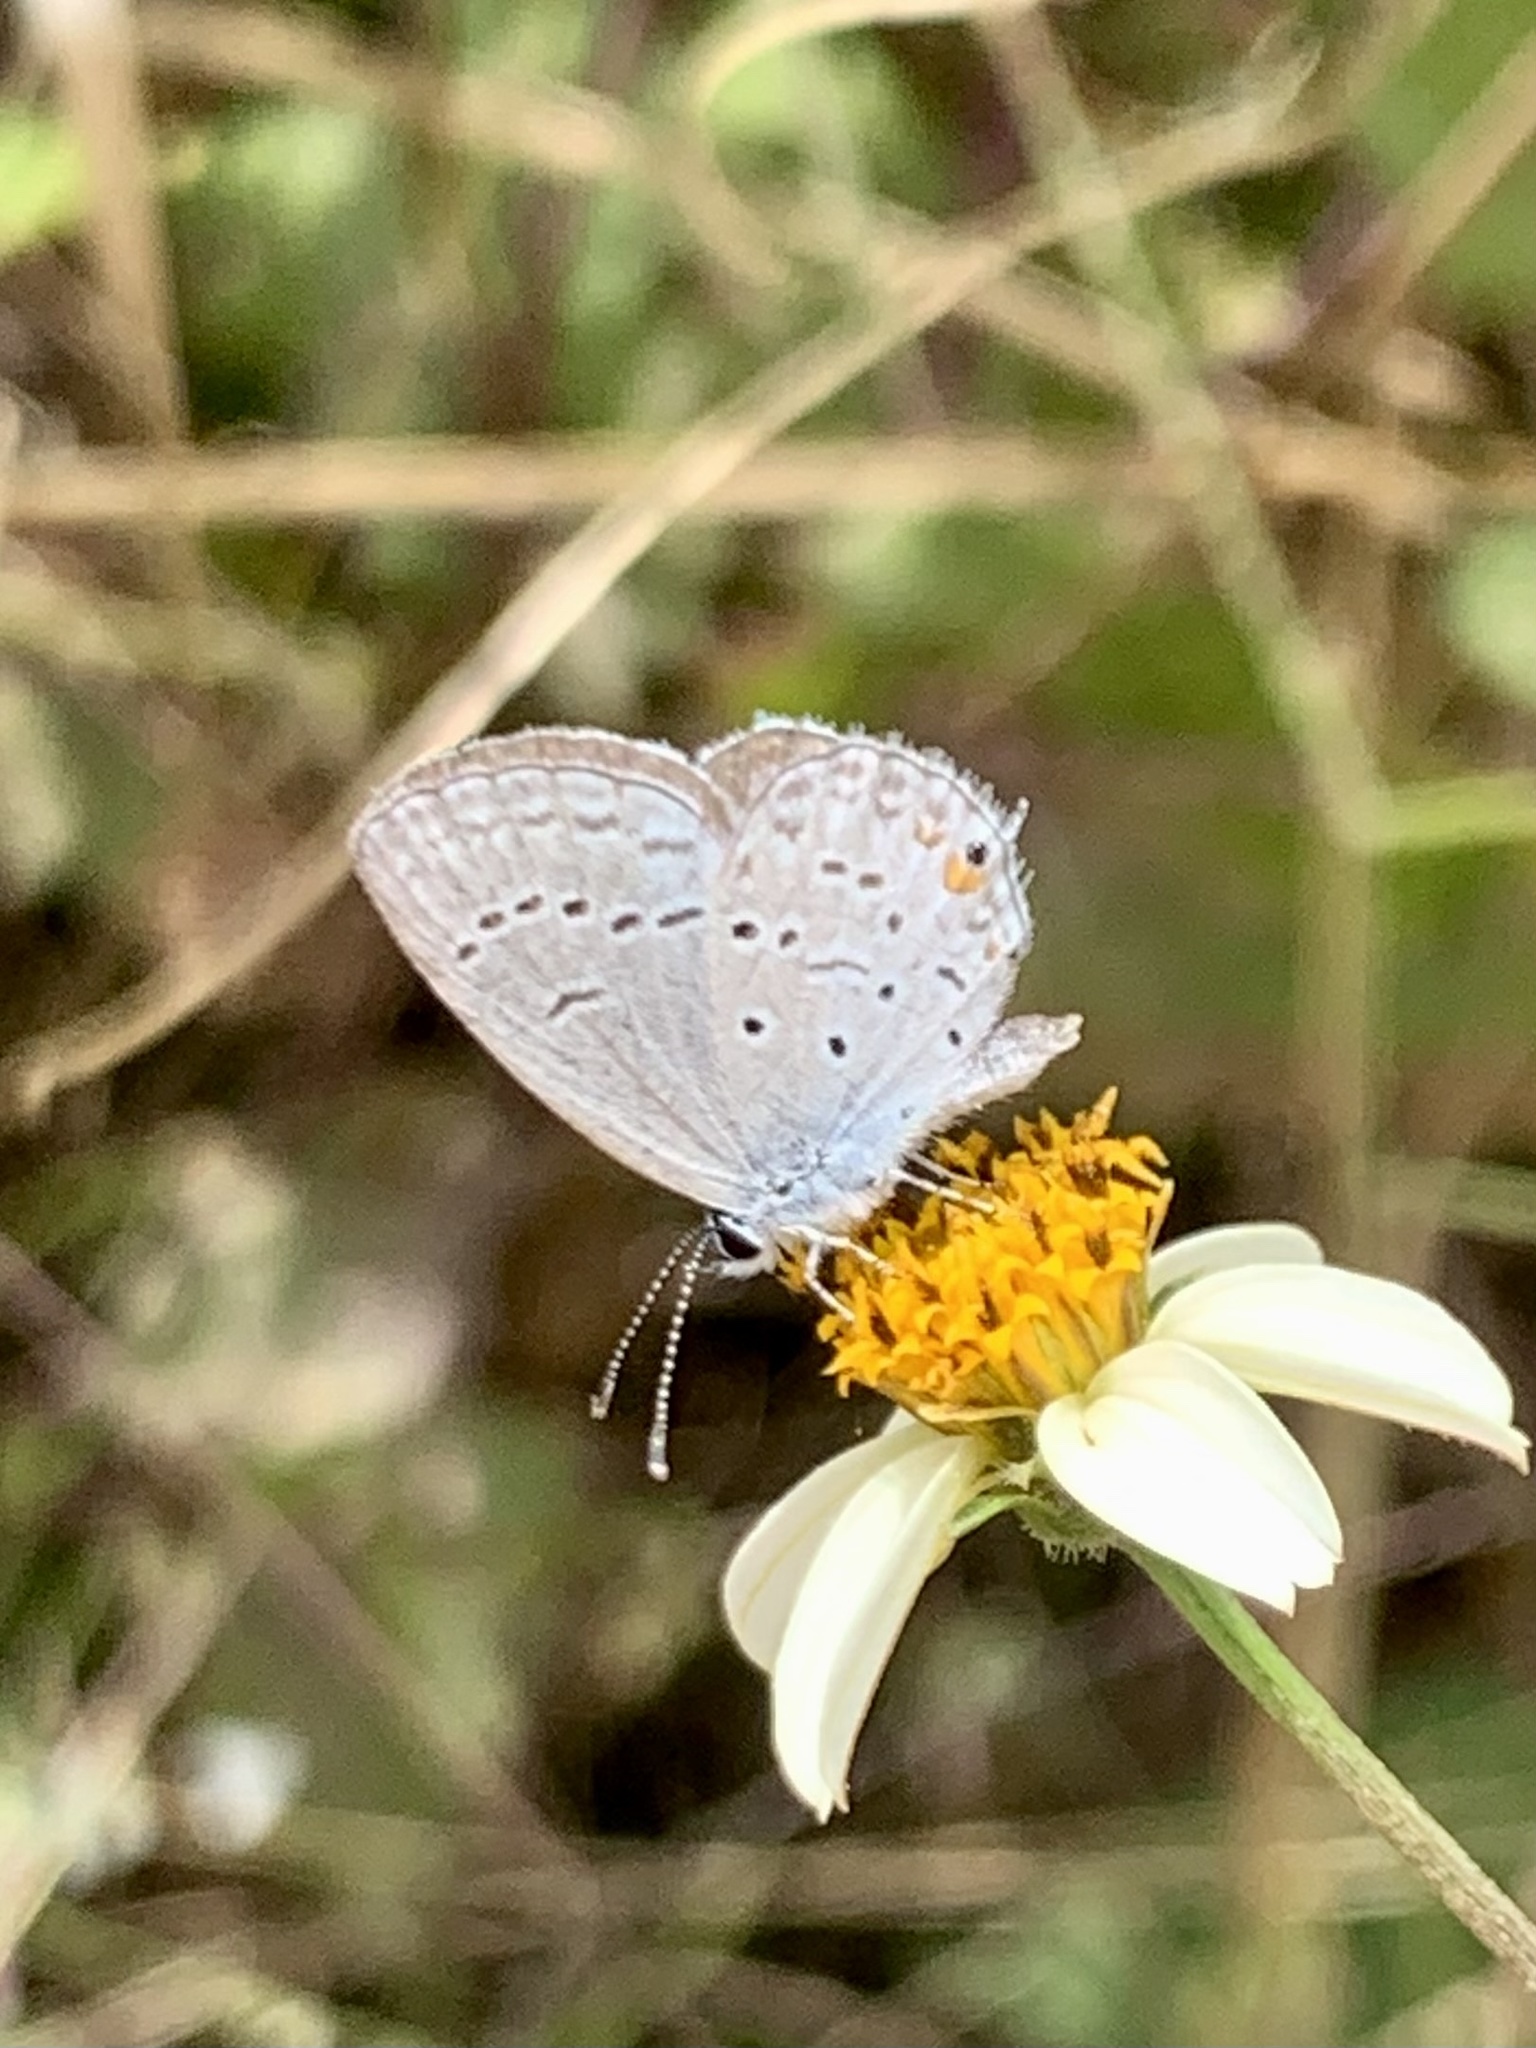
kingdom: Animalia
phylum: Arthropoda
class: Insecta
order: Lepidoptera
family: Lycaenidae
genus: Elkalyce
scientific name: Elkalyce comyntas
